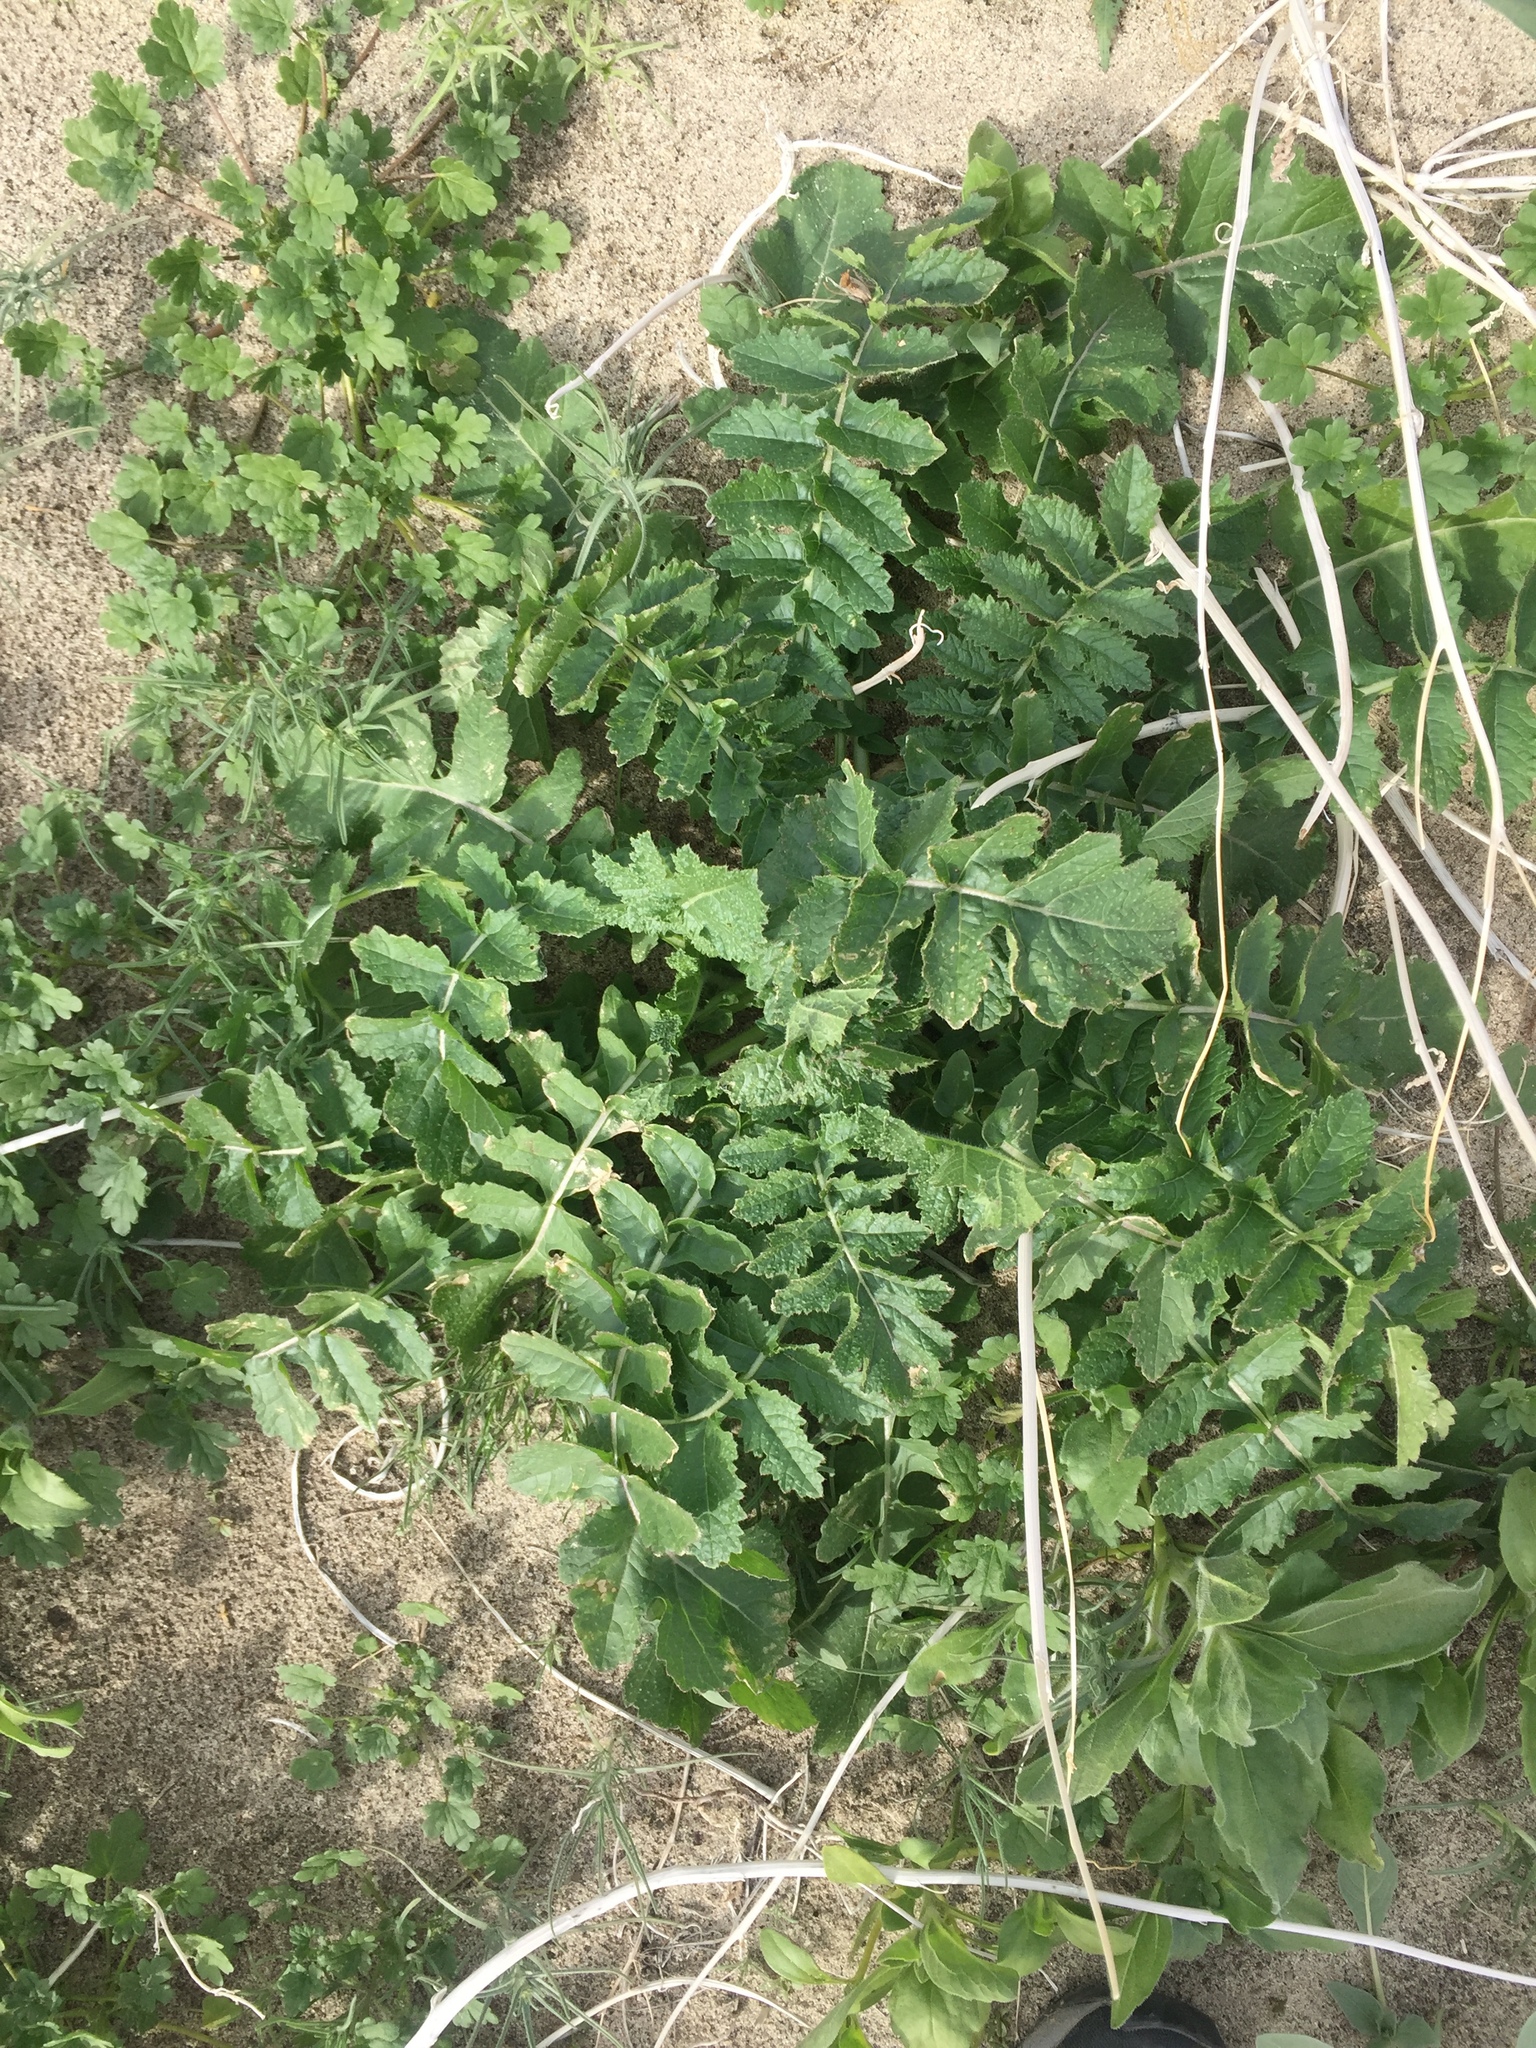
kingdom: Plantae
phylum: Tracheophyta
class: Magnoliopsida
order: Brassicales
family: Brassicaceae
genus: Brassica
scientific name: Brassica tournefortii
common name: Pale cabbage
